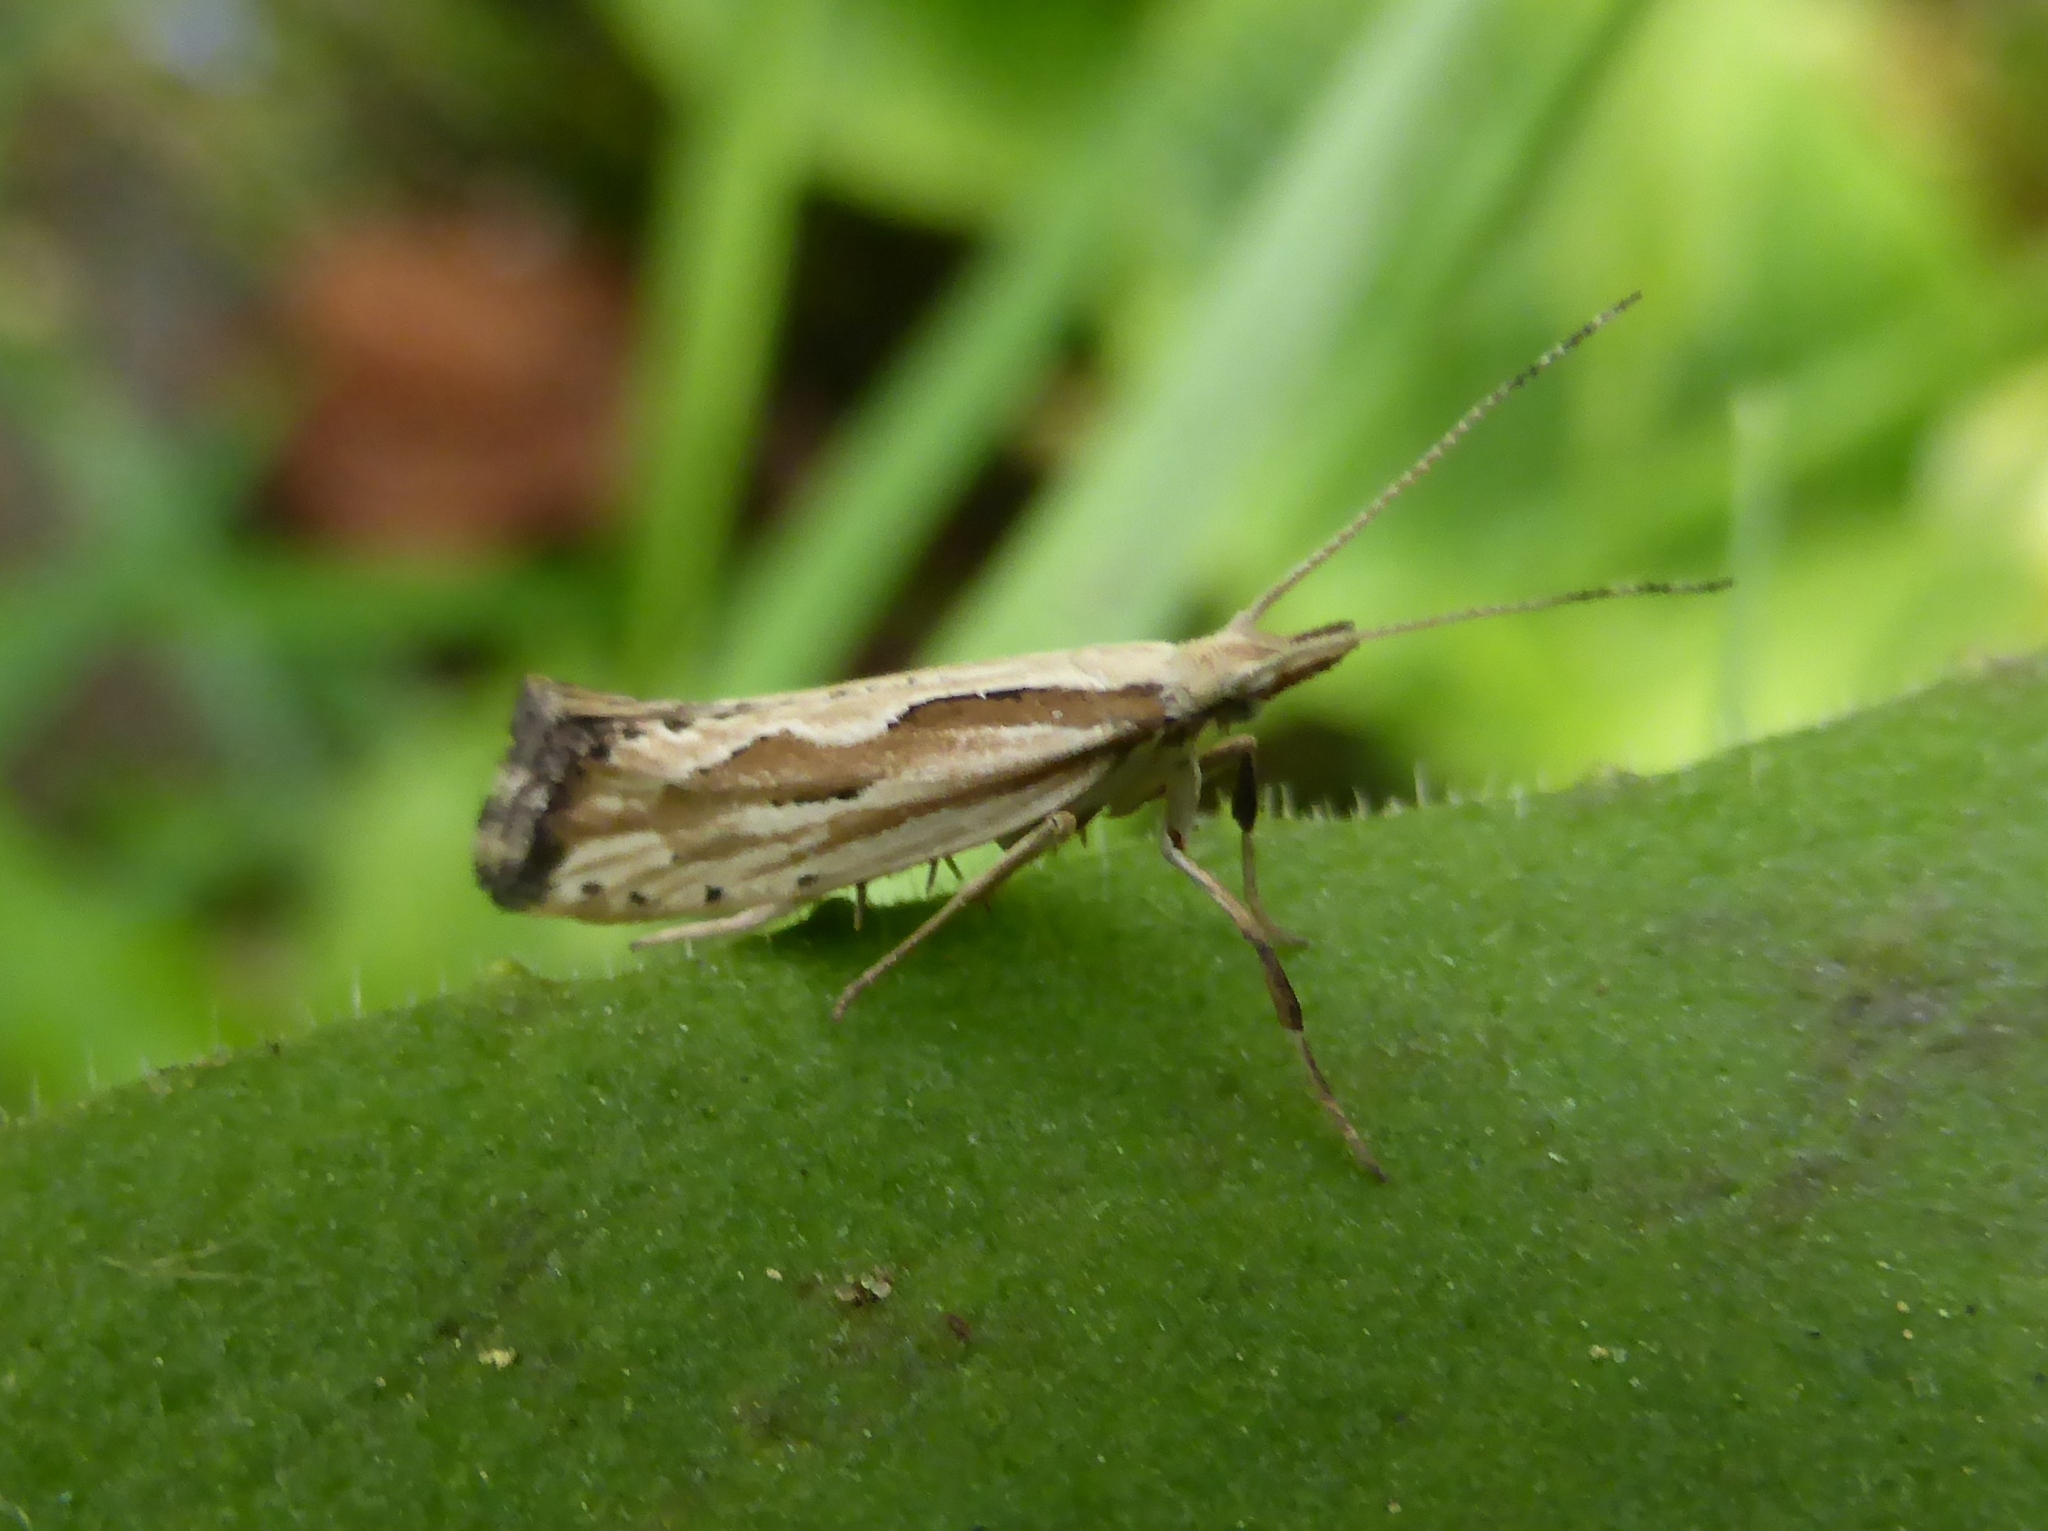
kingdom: Animalia
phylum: Arthropoda
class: Insecta
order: Lepidoptera
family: Plutellidae
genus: Plutella
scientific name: Plutella porrectella
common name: Dame's rocket moth
